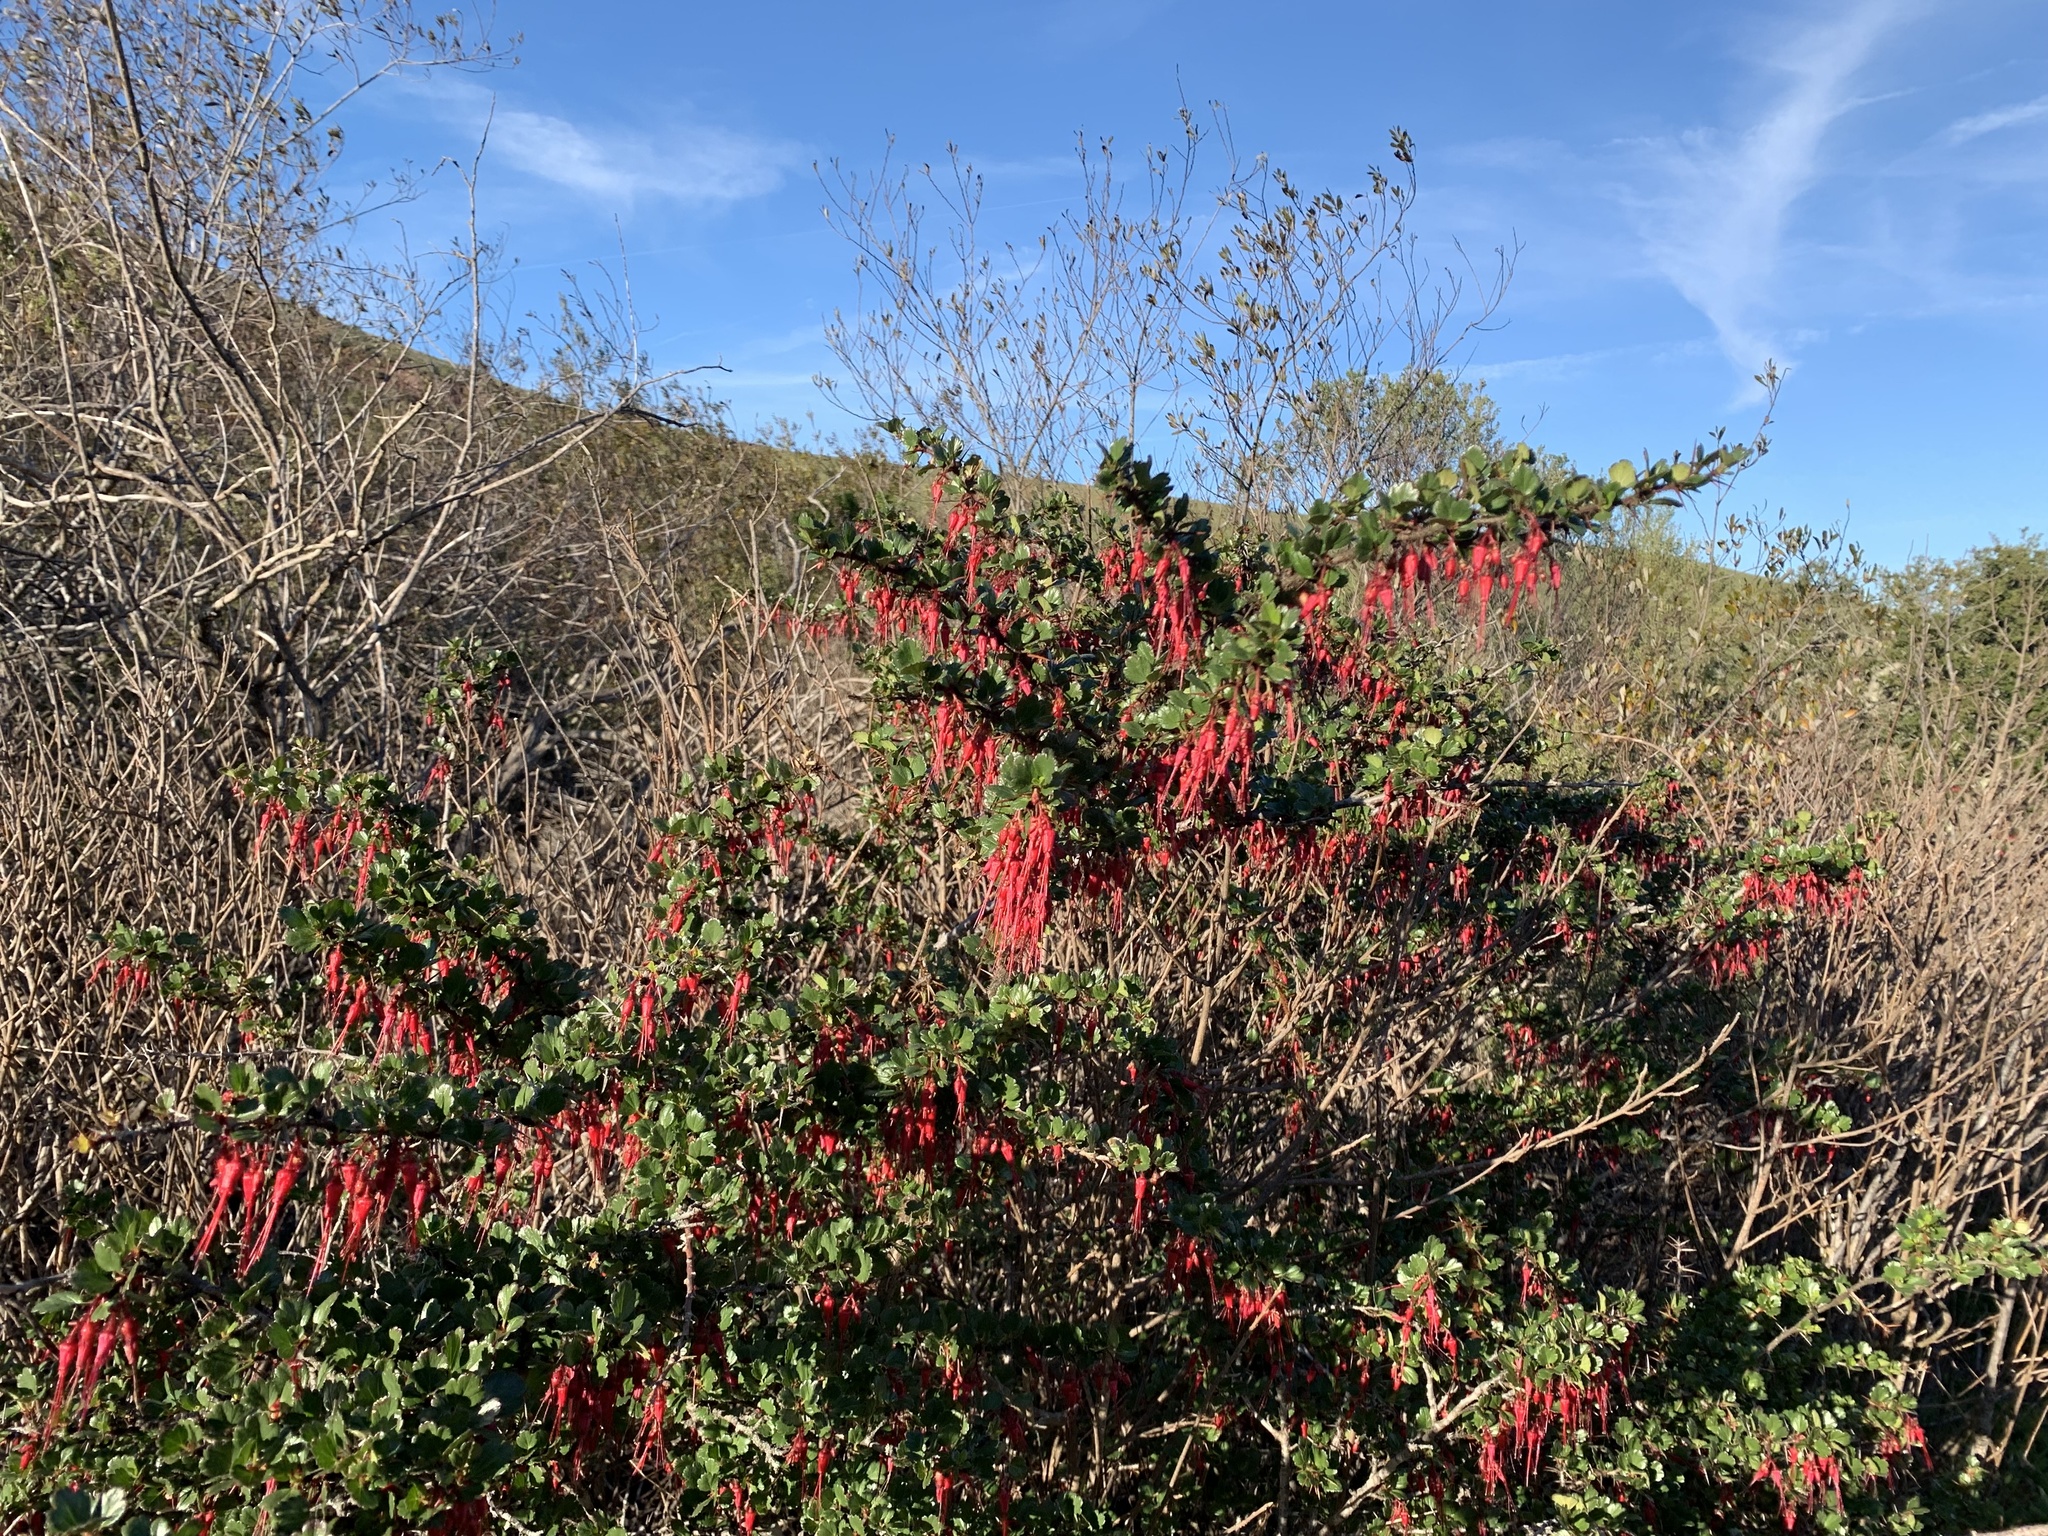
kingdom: Plantae
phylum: Tracheophyta
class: Magnoliopsida
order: Saxifragales
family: Grossulariaceae
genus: Ribes
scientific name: Ribes speciosum
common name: Fuchsia-flower gooseberry
